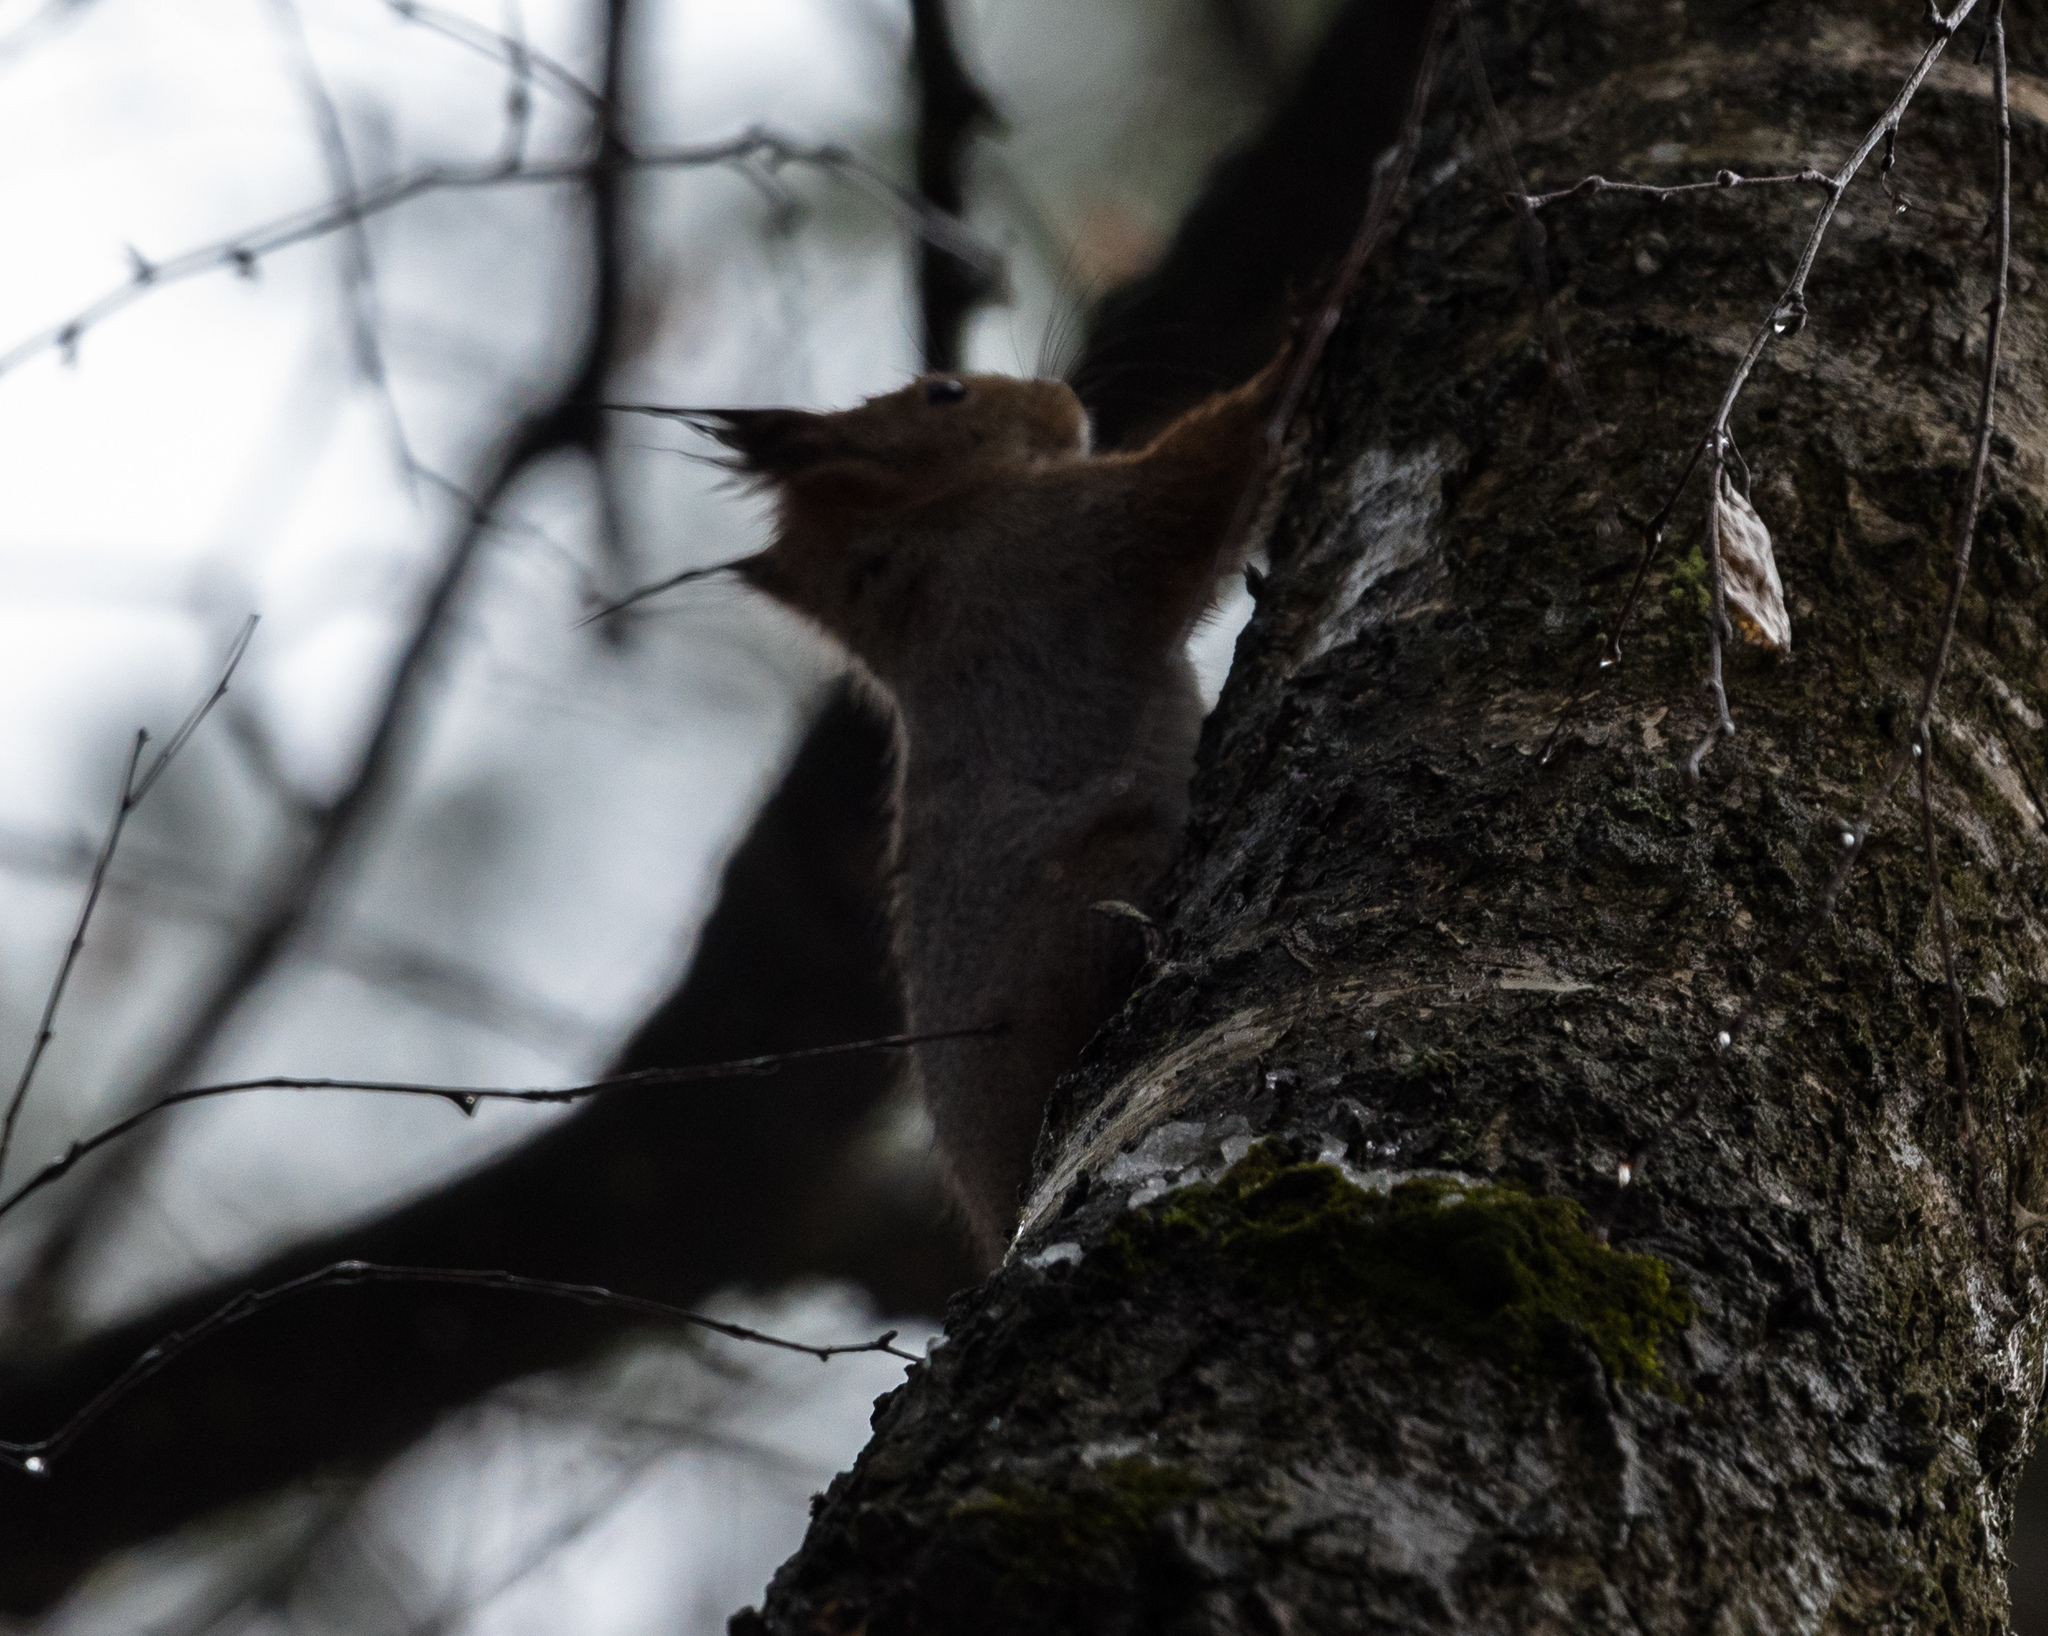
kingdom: Animalia
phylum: Chordata
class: Mammalia
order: Rodentia
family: Sciuridae
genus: Sciurus
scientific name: Sciurus vulgaris
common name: Eurasian red squirrel
